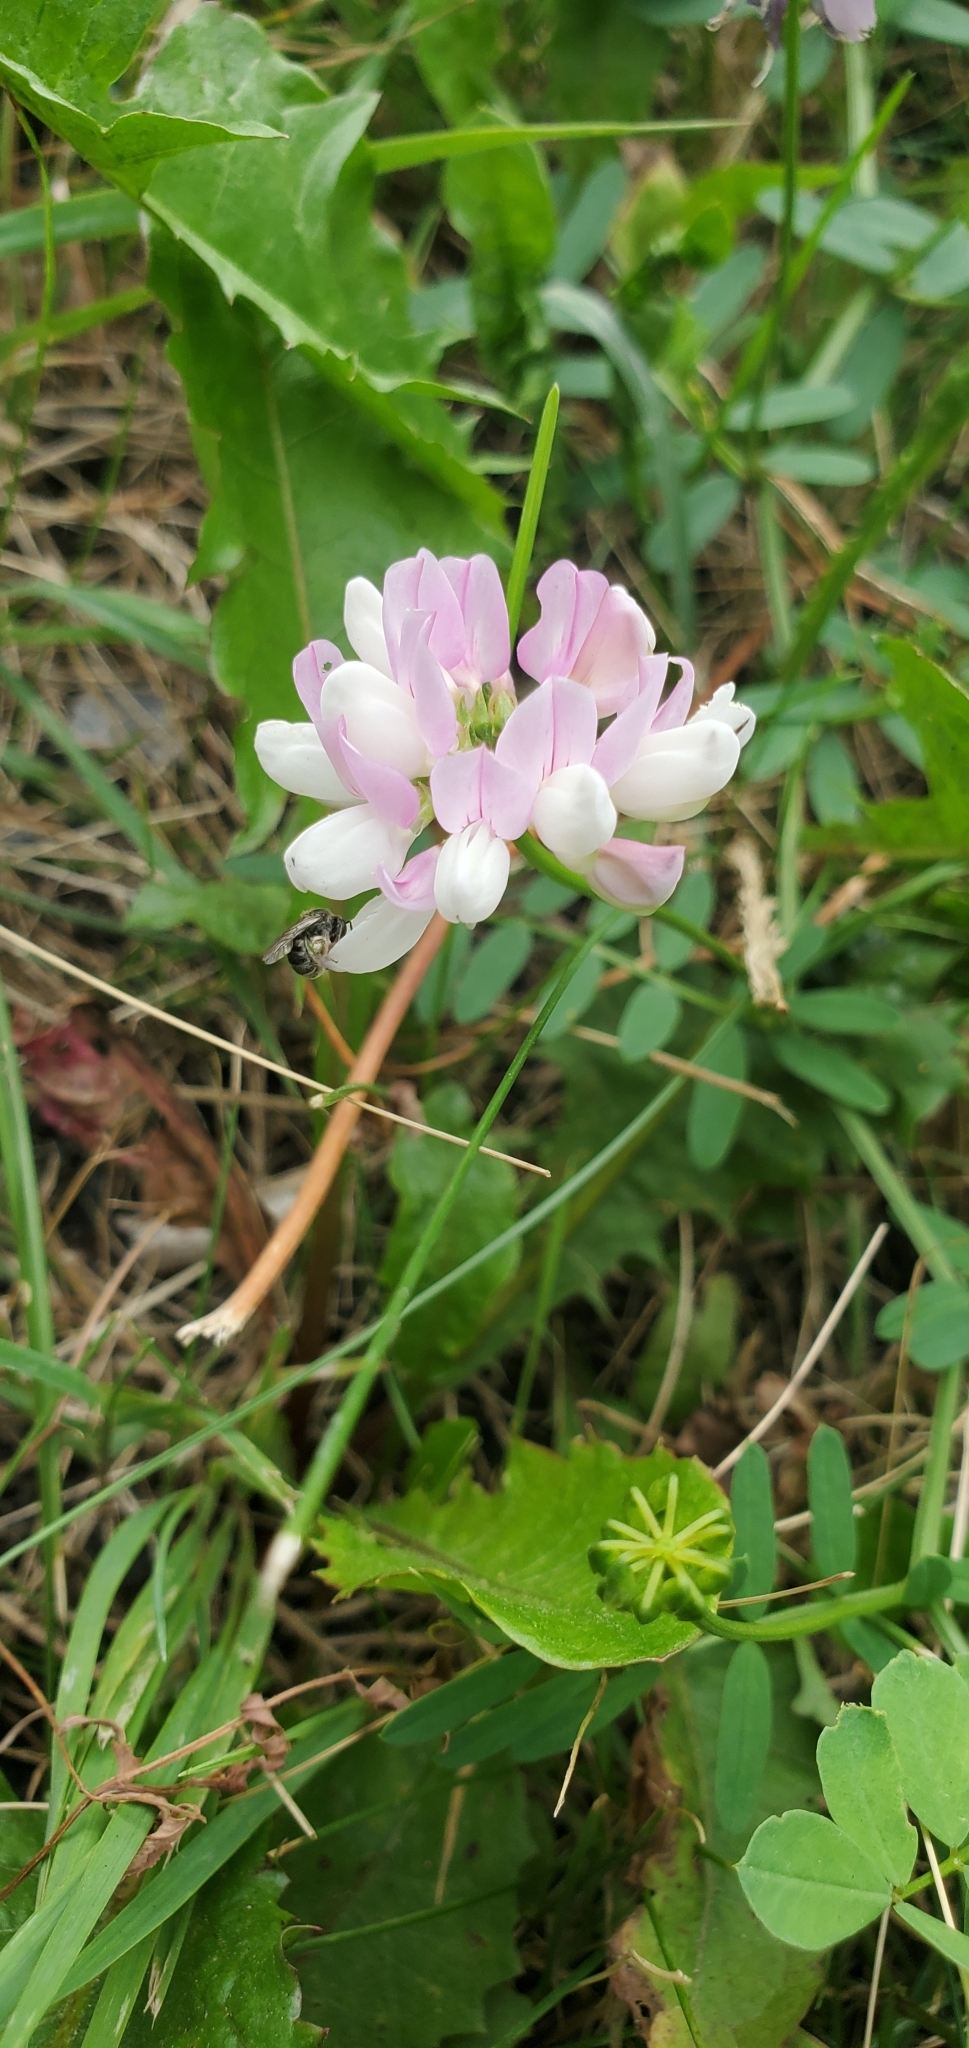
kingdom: Plantae
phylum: Tracheophyta
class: Magnoliopsida
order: Fabales
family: Fabaceae
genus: Coronilla
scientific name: Coronilla varia
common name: Crownvetch
